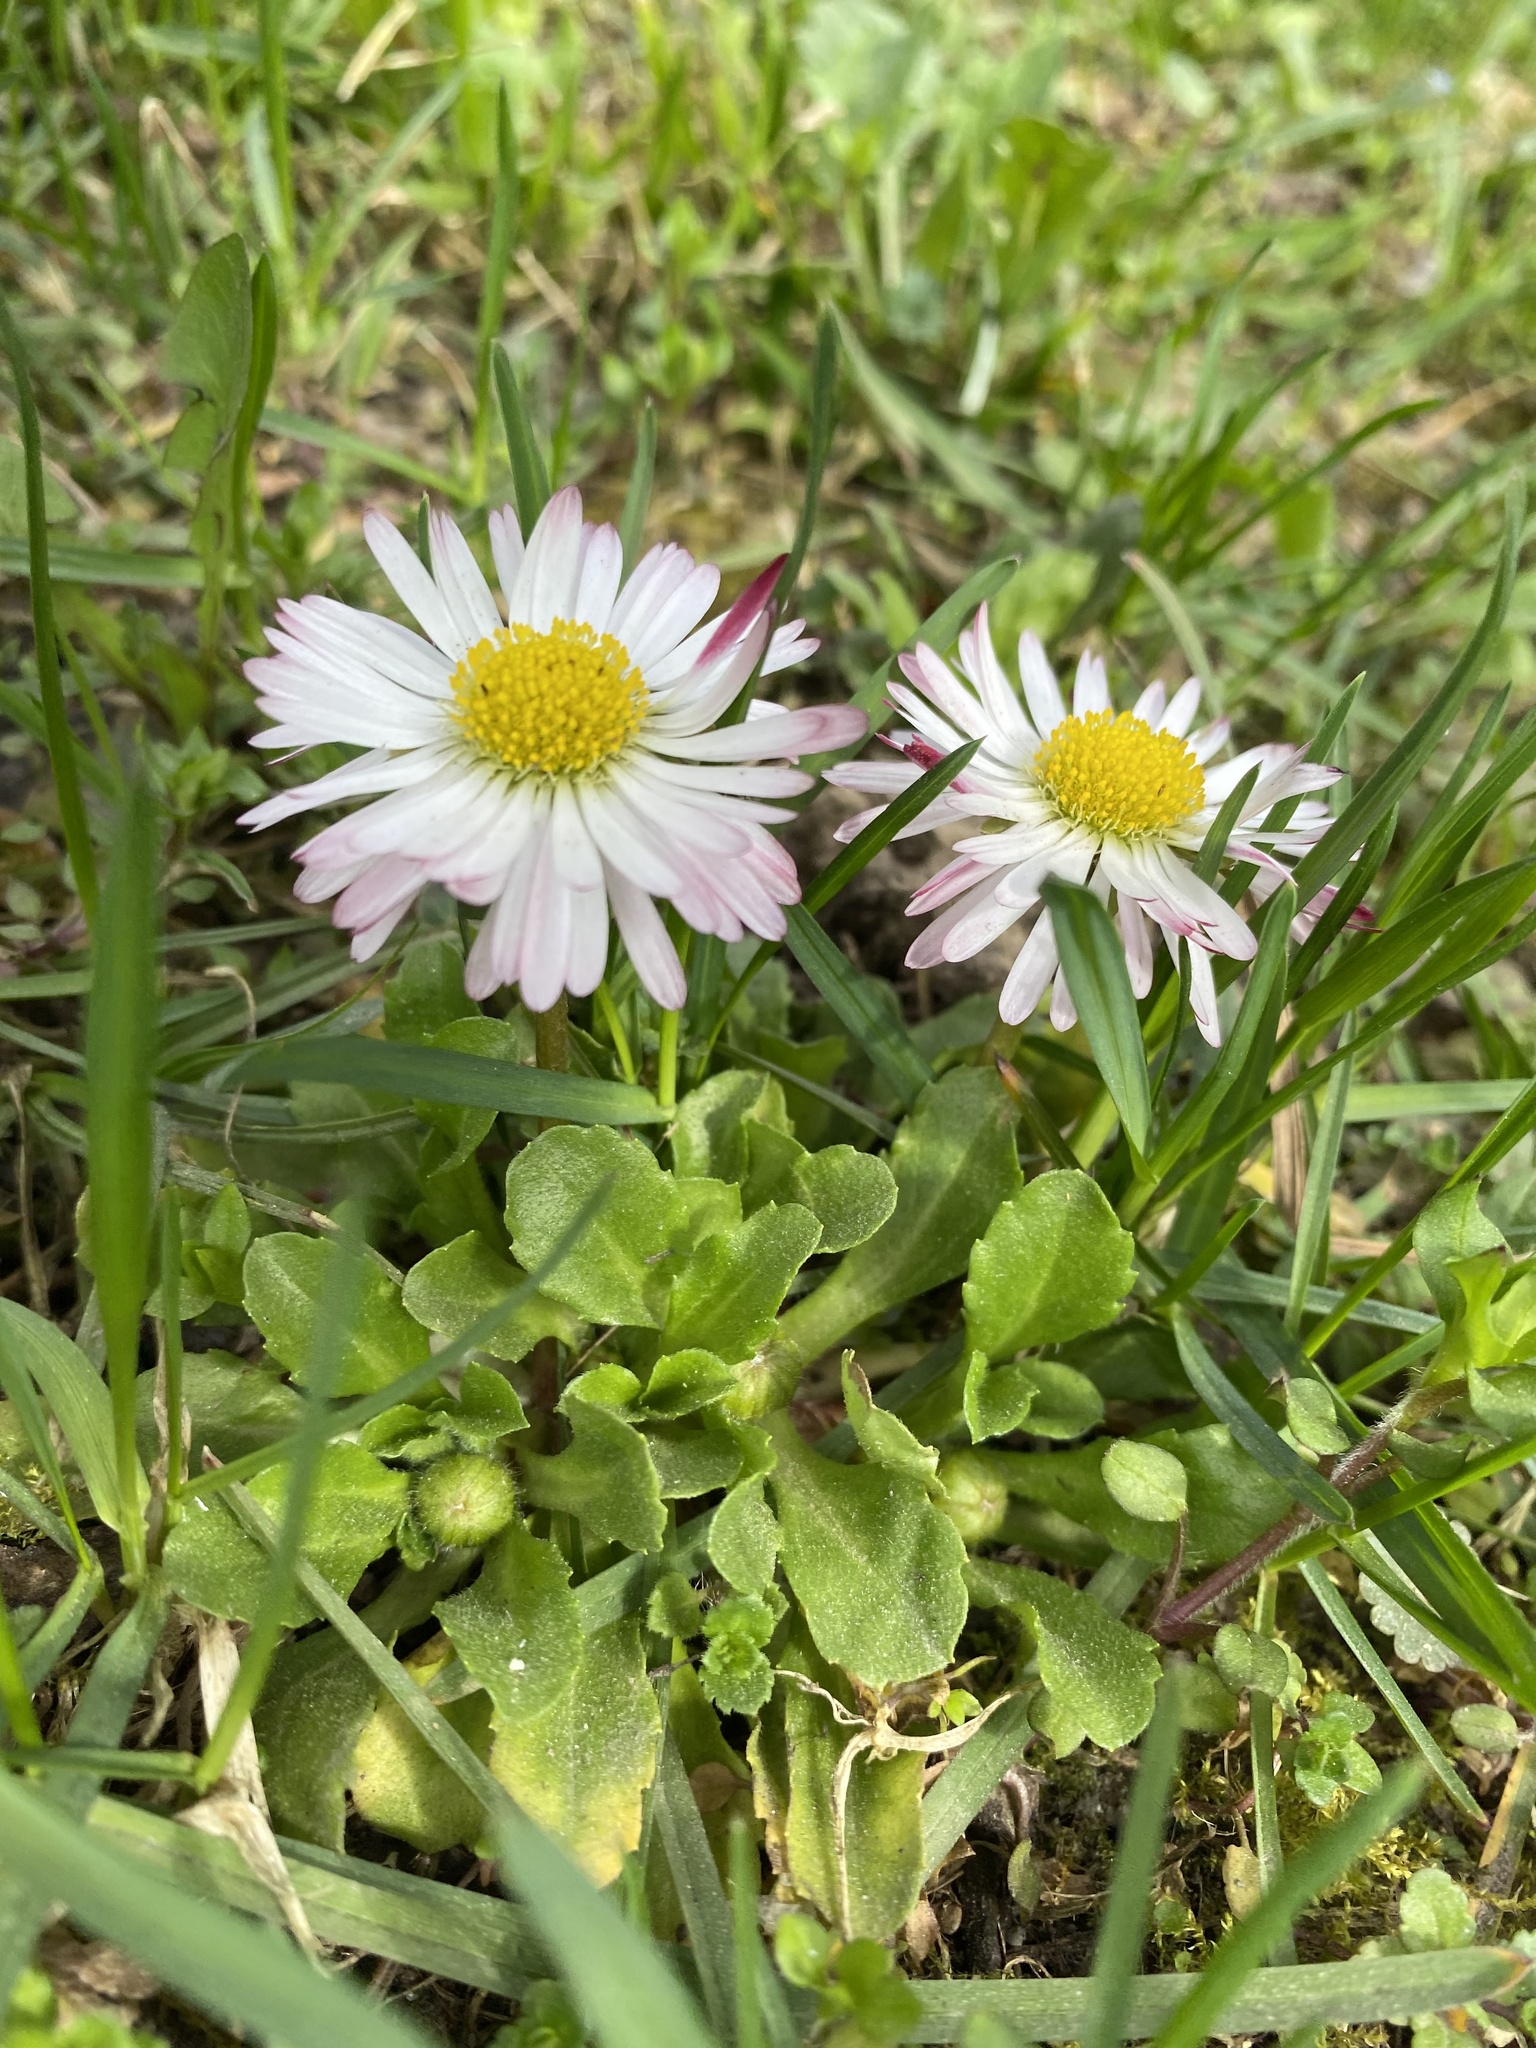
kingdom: Plantae
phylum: Tracheophyta
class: Magnoliopsida
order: Asterales
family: Asteraceae
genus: Bellis
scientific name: Bellis perennis
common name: Lawndaisy
